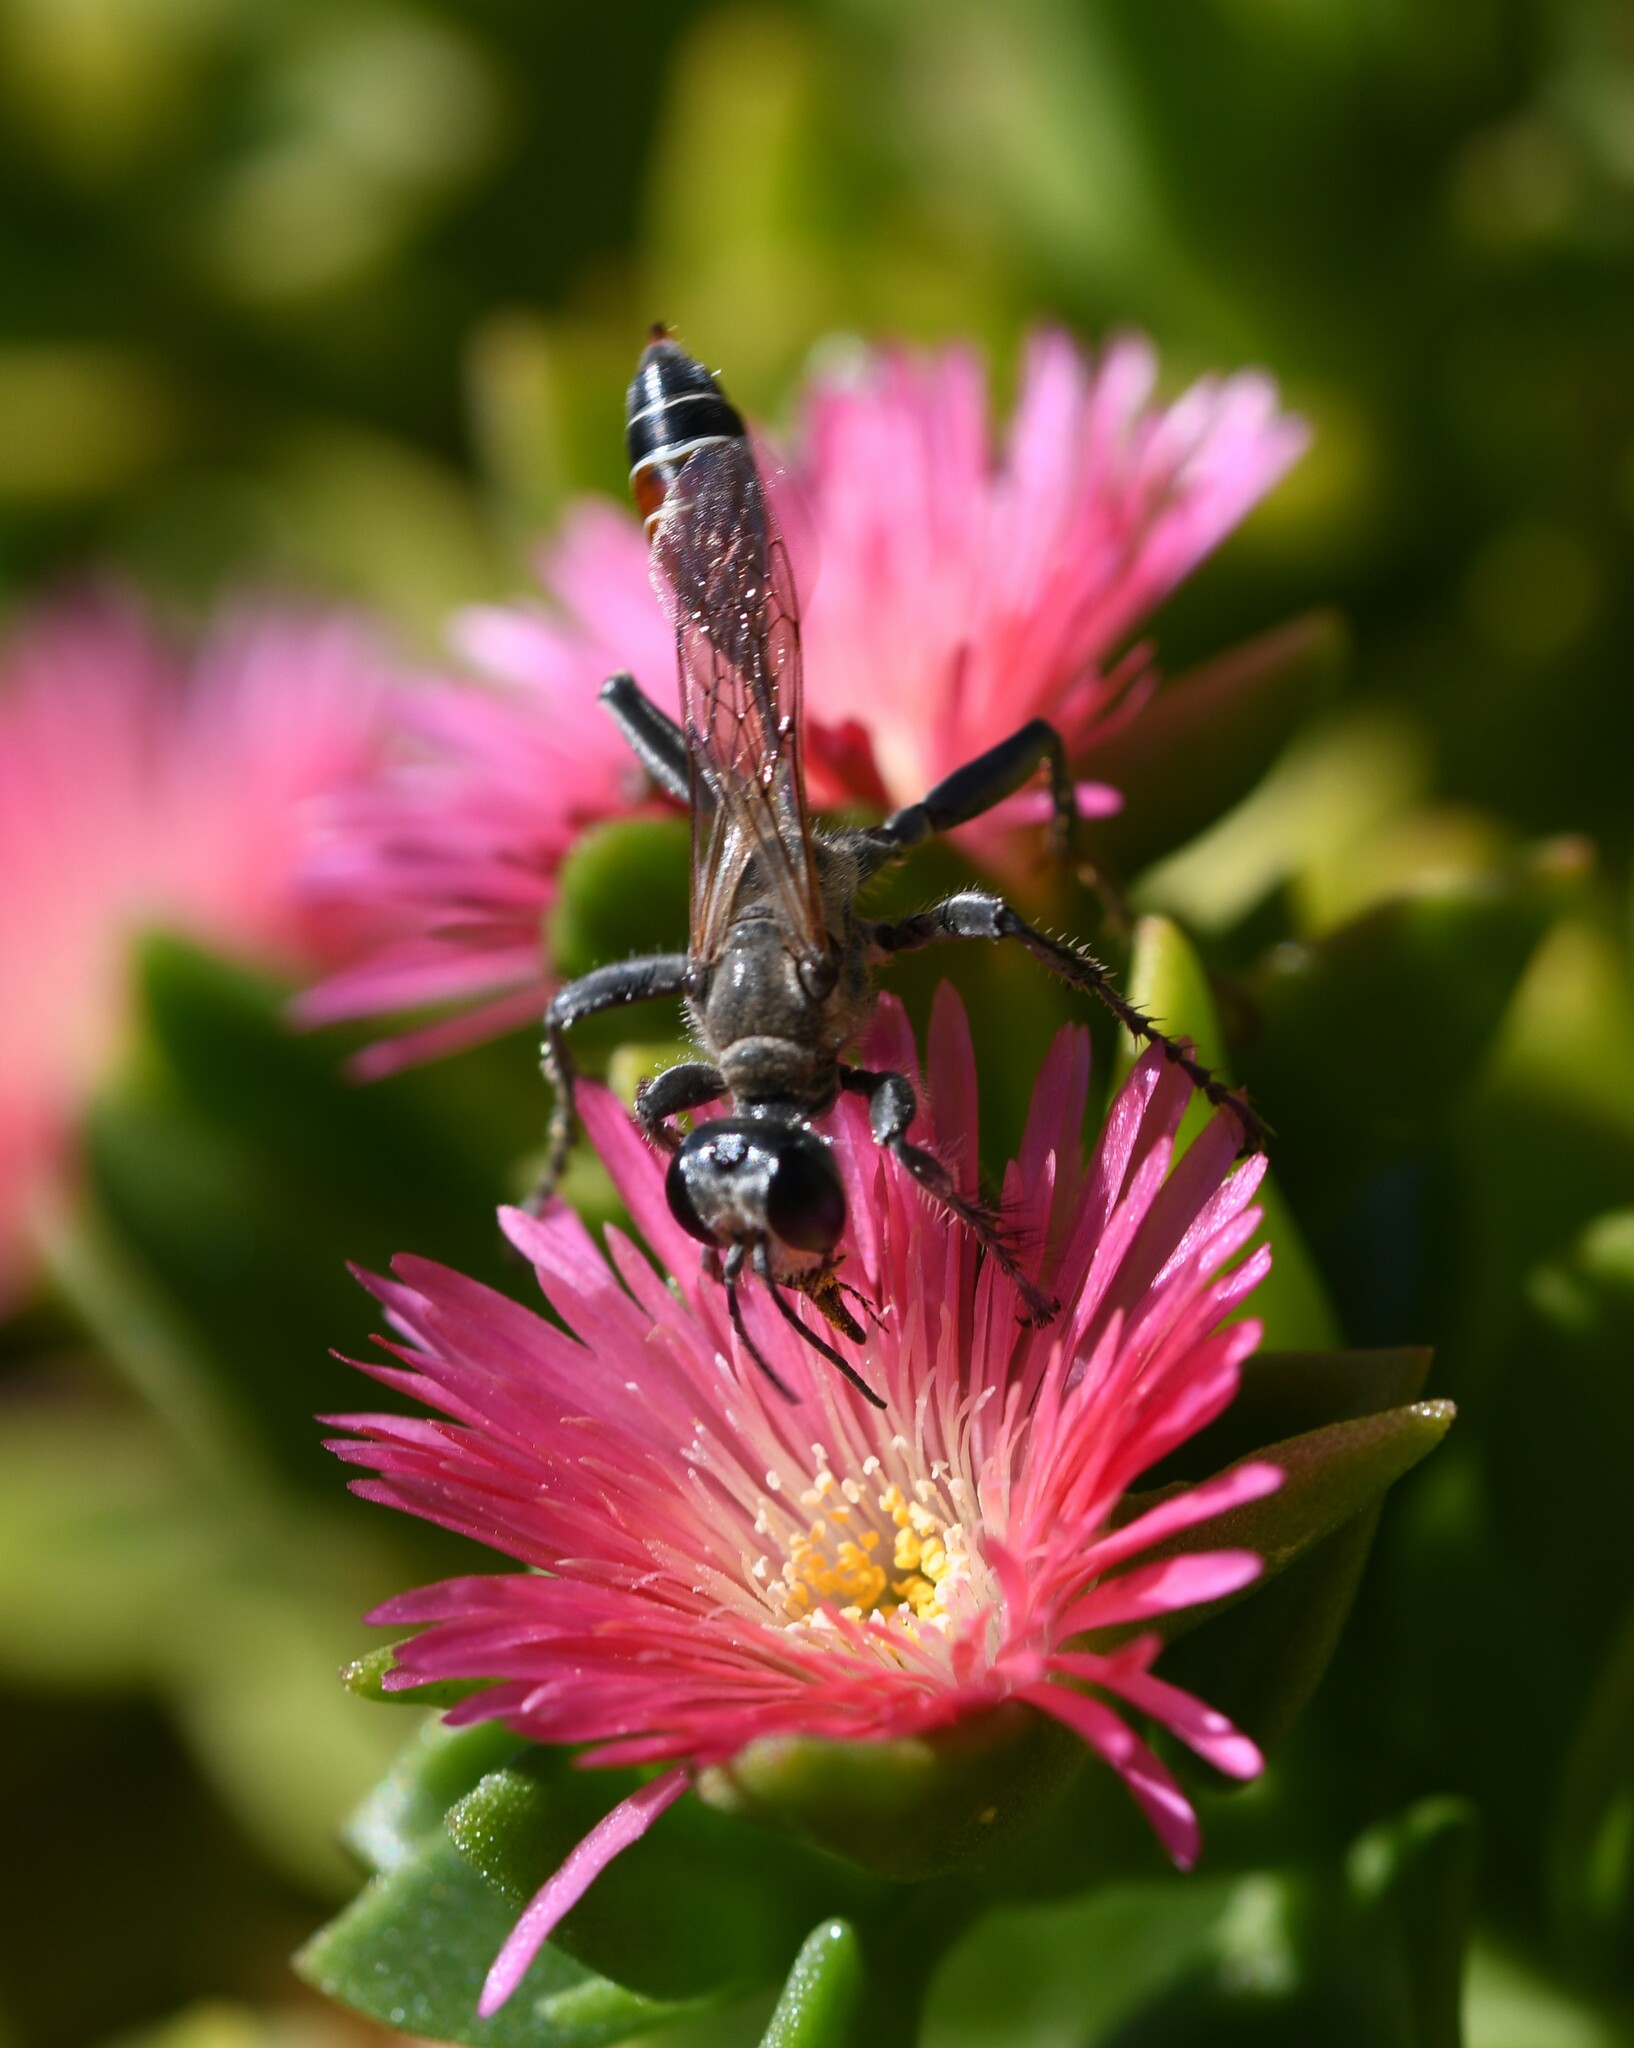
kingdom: Animalia
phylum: Arthropoda
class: Insecta
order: Hymenoptera
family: Sphecidae
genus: Prionyx
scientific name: Prionyx kirbii
